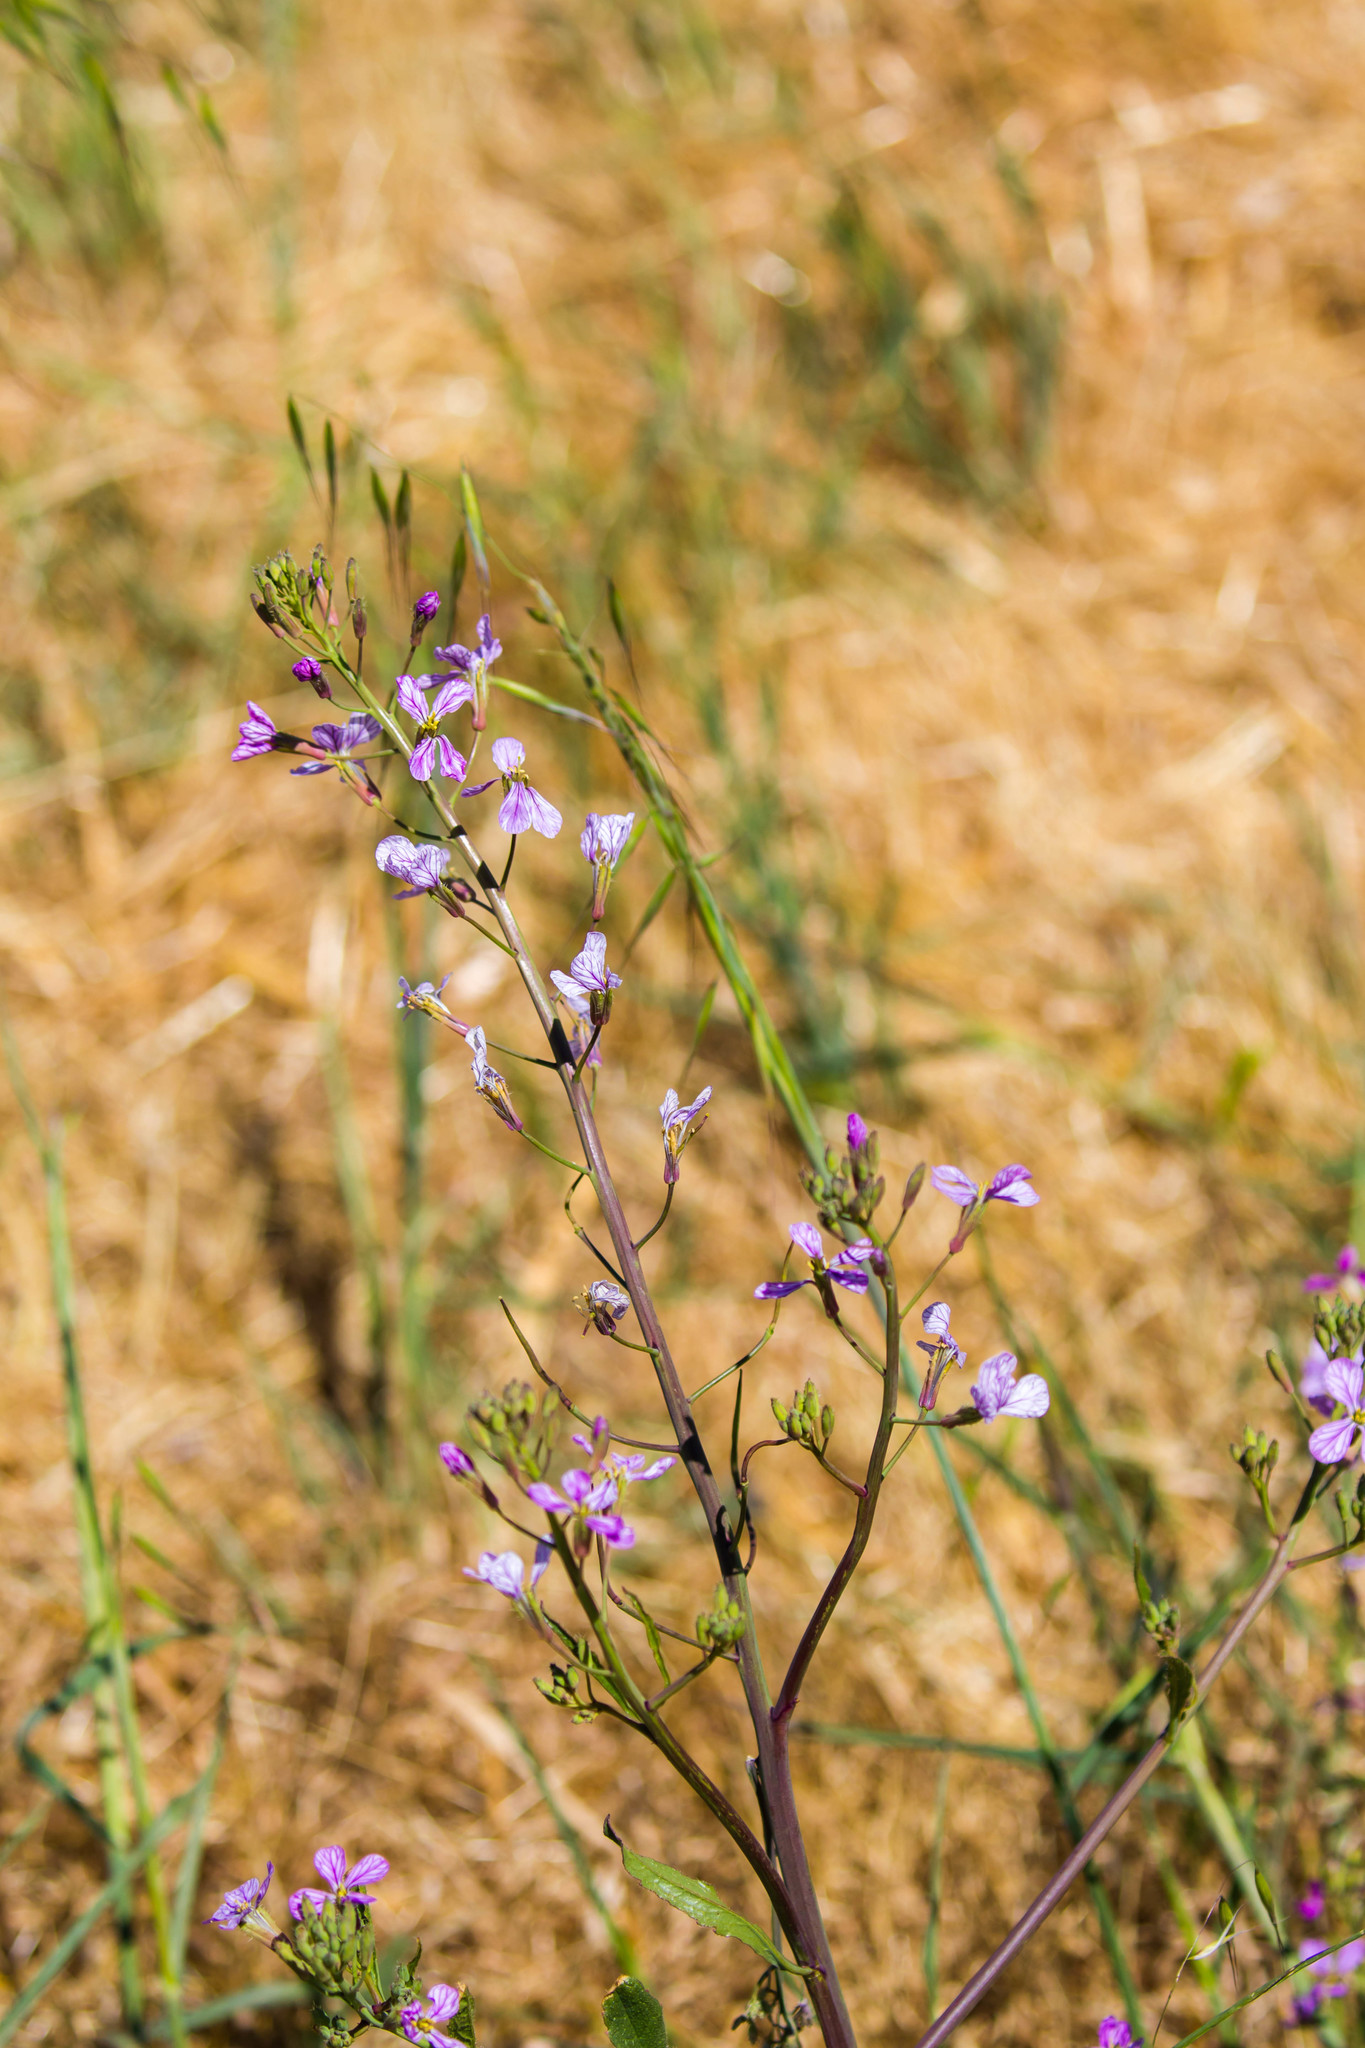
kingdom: Plantae
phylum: Tracheophyta
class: Magnoliopsida
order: Brassicales
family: Brassicaceae
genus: Raphanus
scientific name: Raphanus sativus
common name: Cultivated radish
